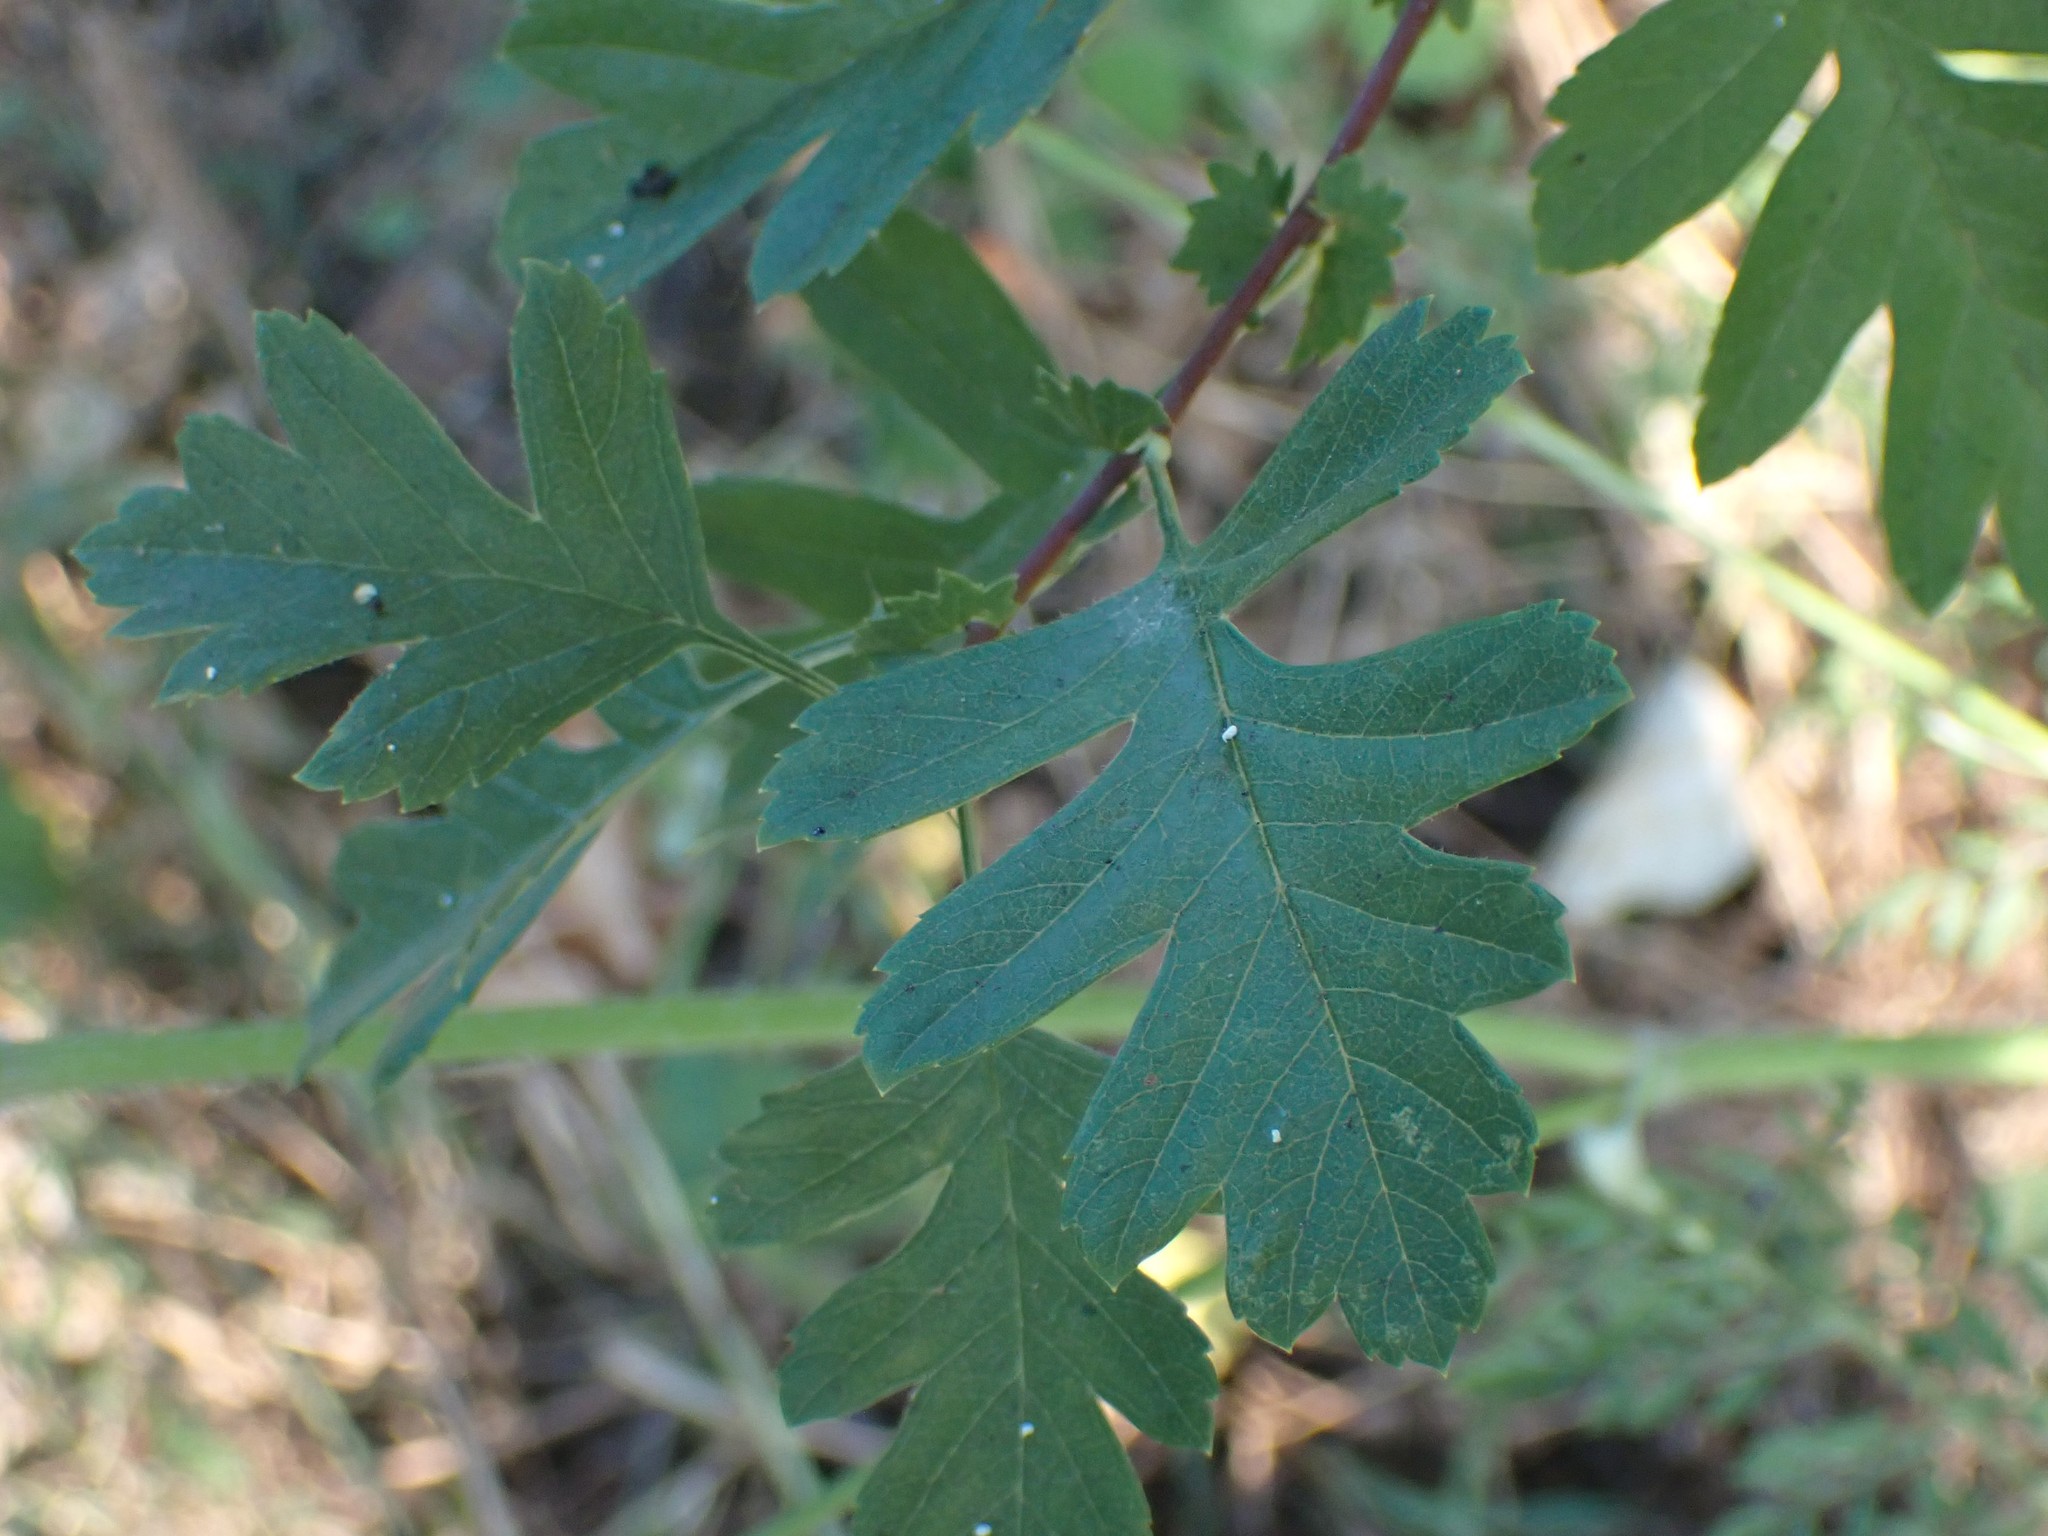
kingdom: Plantae
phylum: Tracheophyta
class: Magnoliopsida
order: Rosales
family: Rosaceae
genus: Crataegus
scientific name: Crataegus monogyna
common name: Hawthorn
